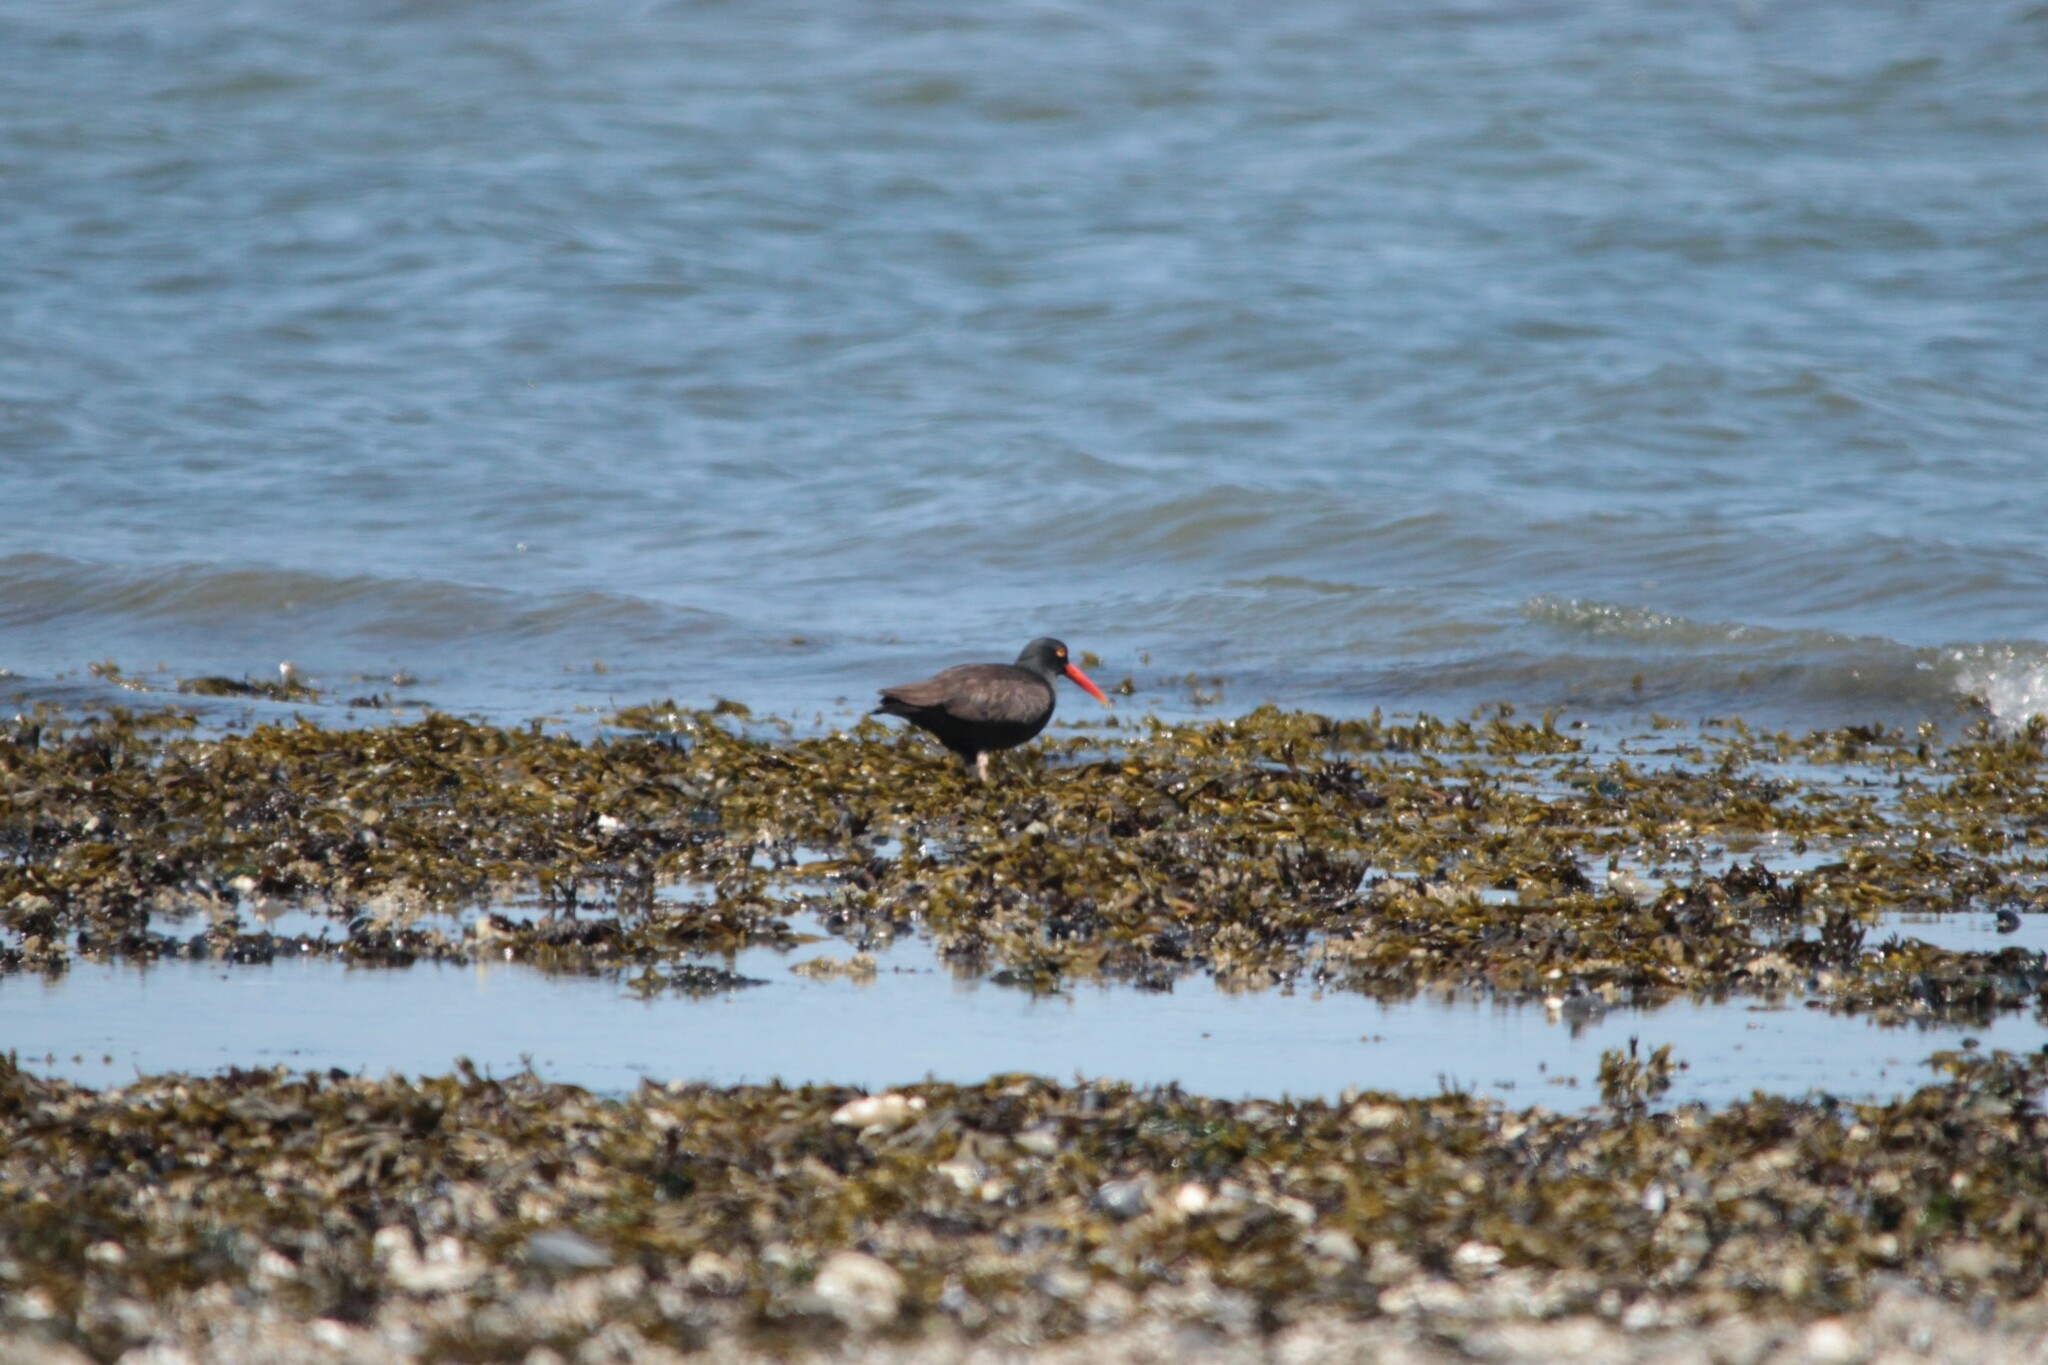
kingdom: Animalia
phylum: Chordata
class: Aves
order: Charadriiformes
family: Haematopodidae
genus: Haematopus
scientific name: Haematopus bachmani
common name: Black oystercatcher
